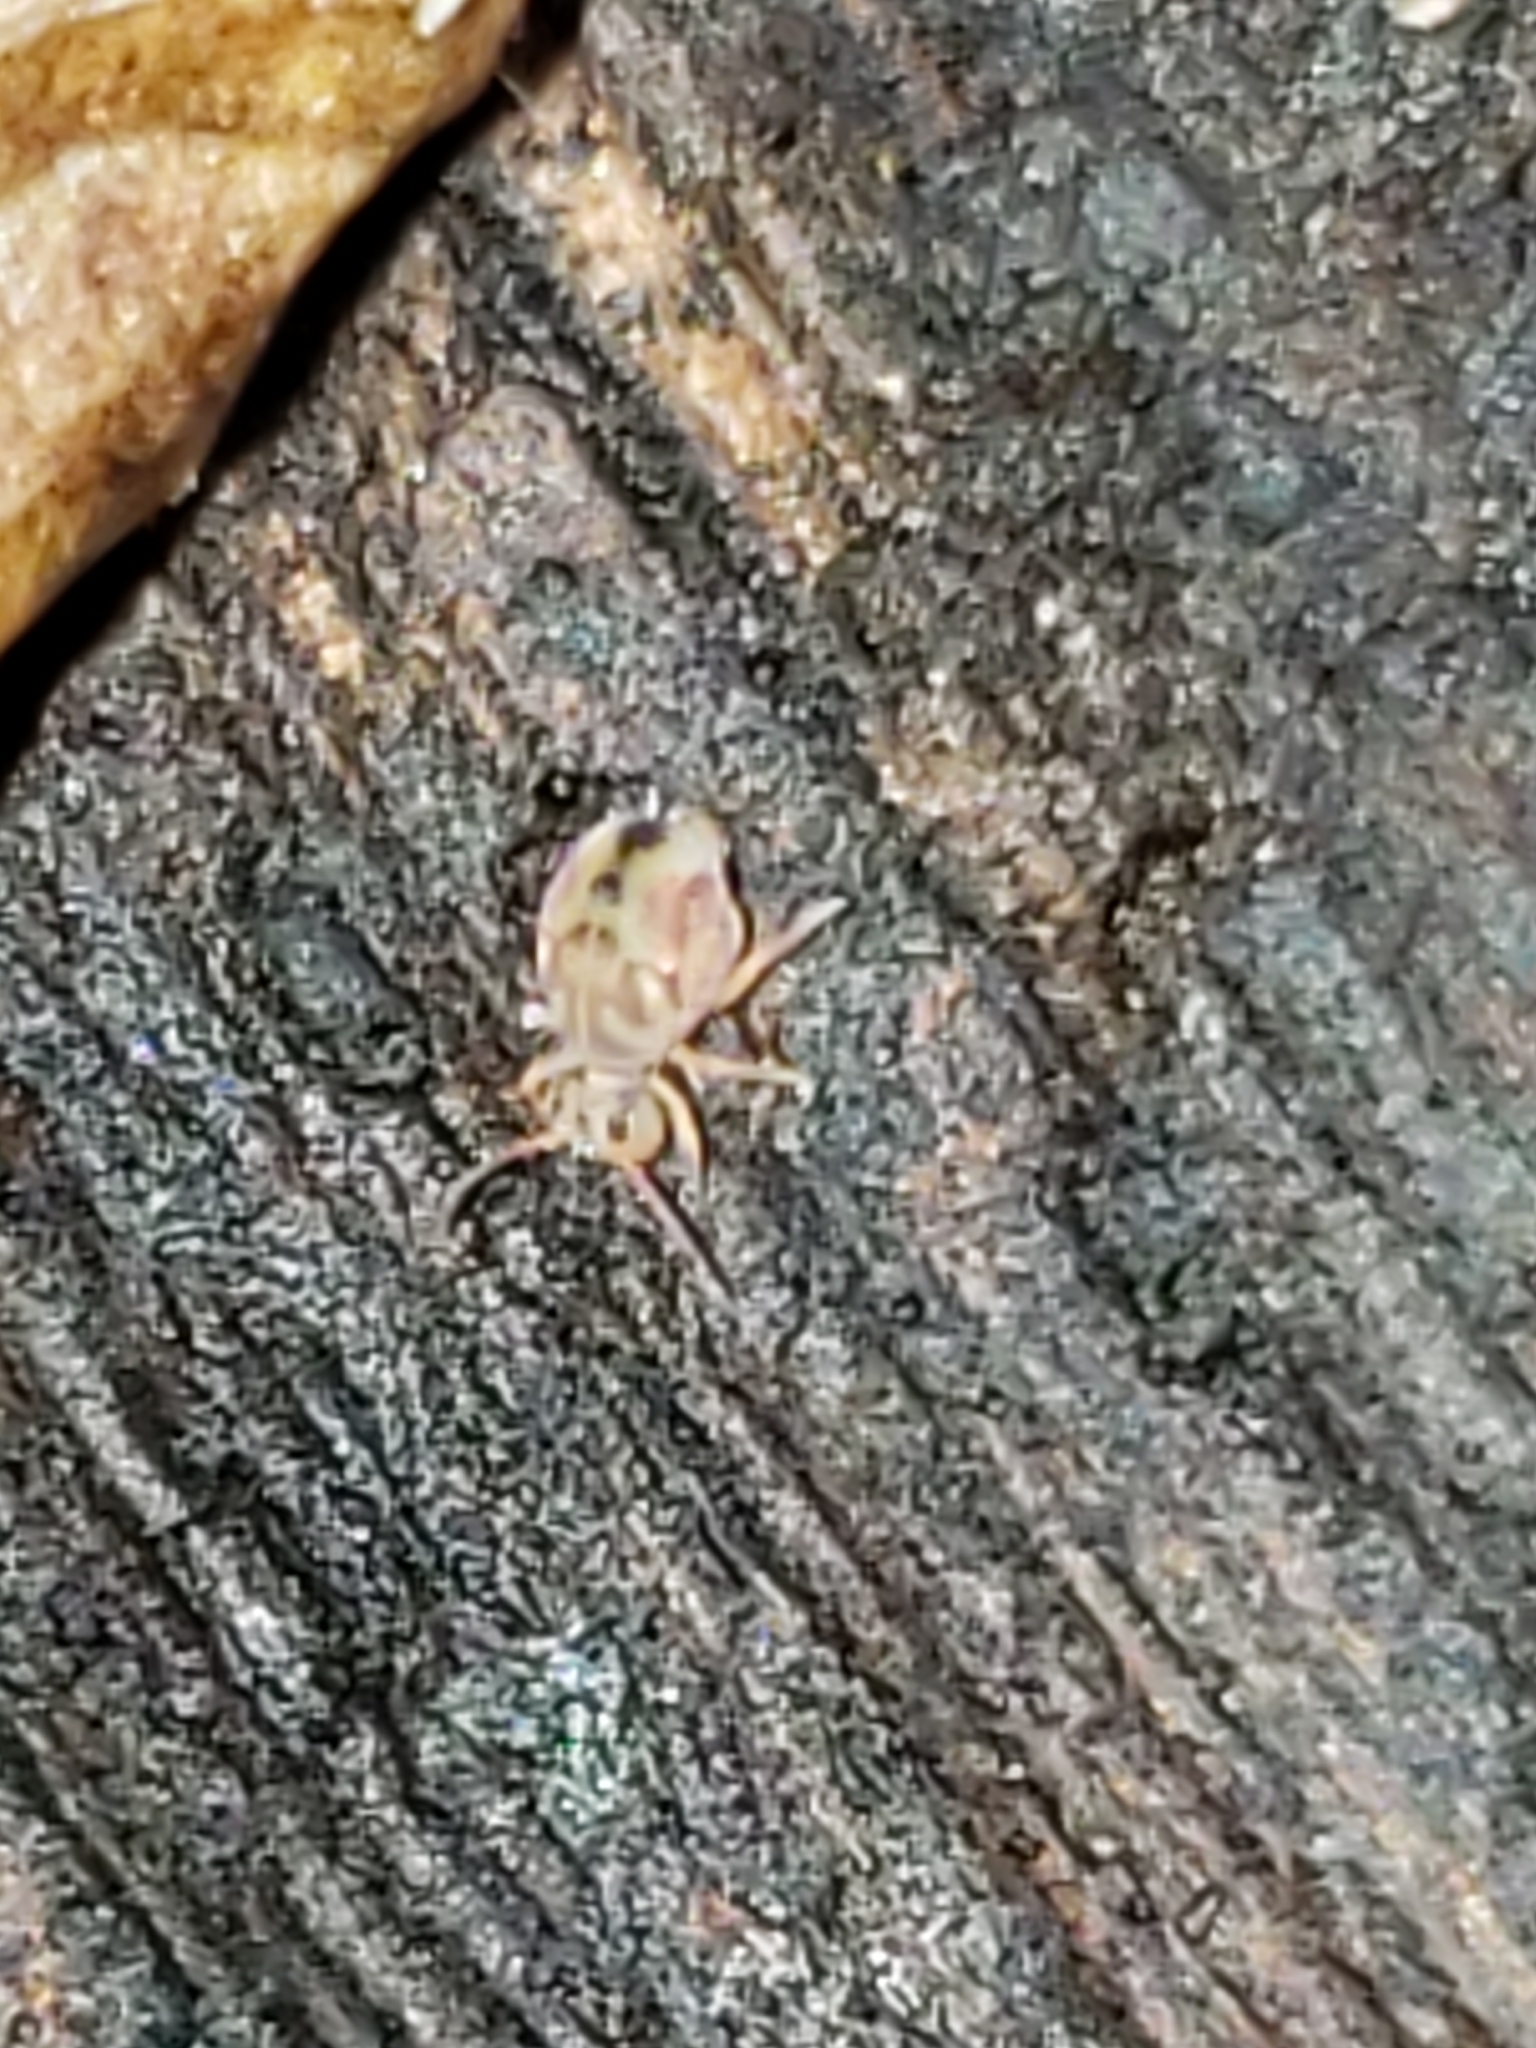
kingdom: Animalia
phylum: Arthropoda
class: Collembola
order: Symphypleona
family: Dicyrtomidae
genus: Dicyrtomina
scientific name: Dicyrtomina minuta
